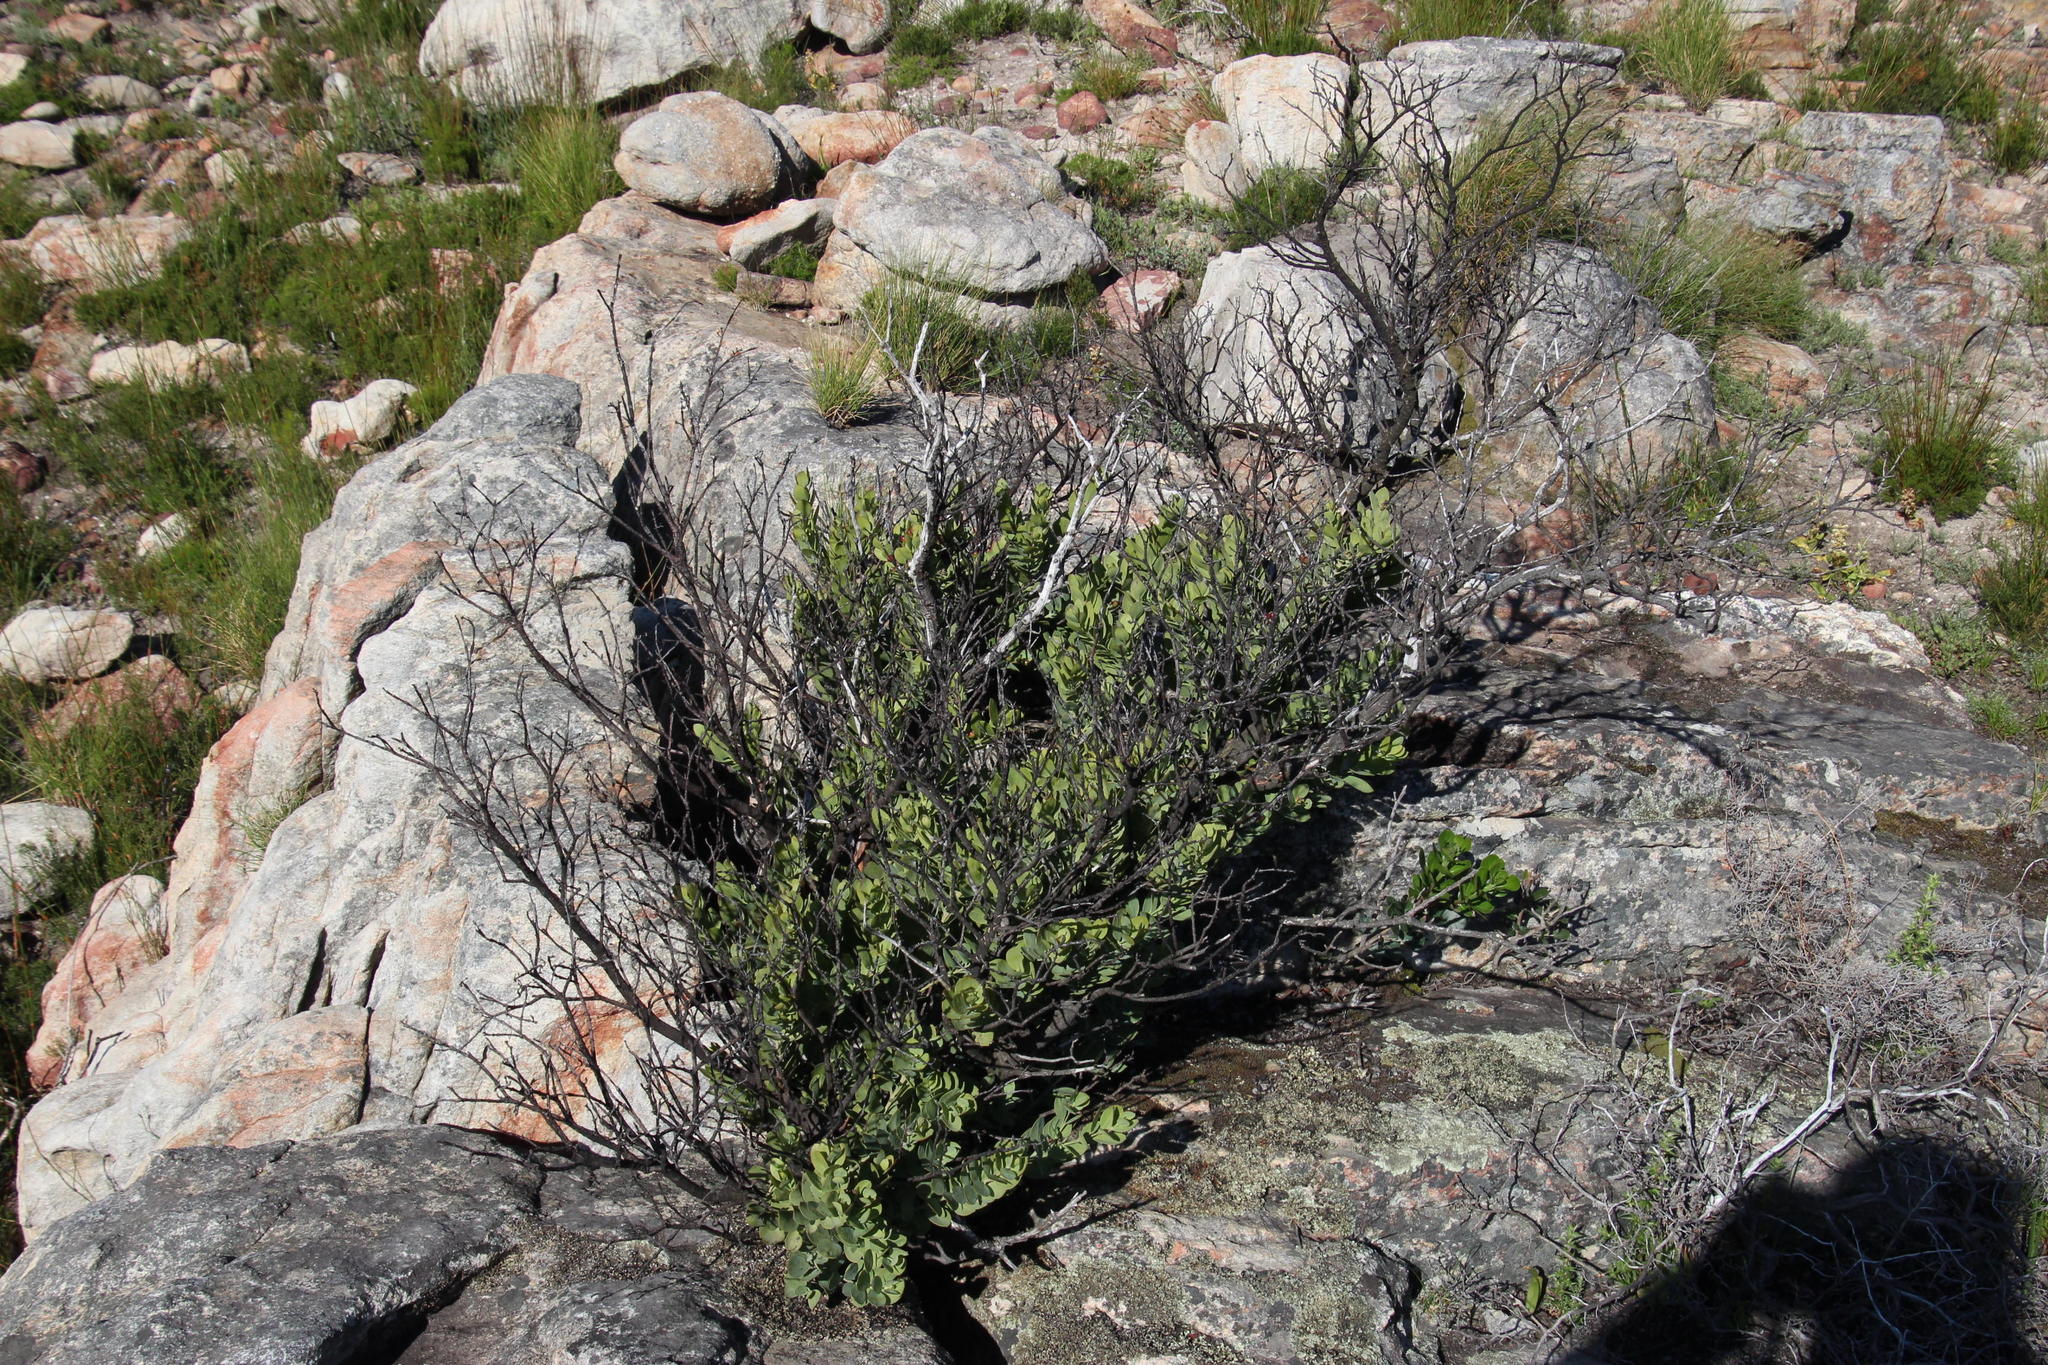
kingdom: Plantae
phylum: Tracheophyta
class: Magnoliopsida
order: Santalales
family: Santalaceae
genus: Osyris
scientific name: Osyris compressa
